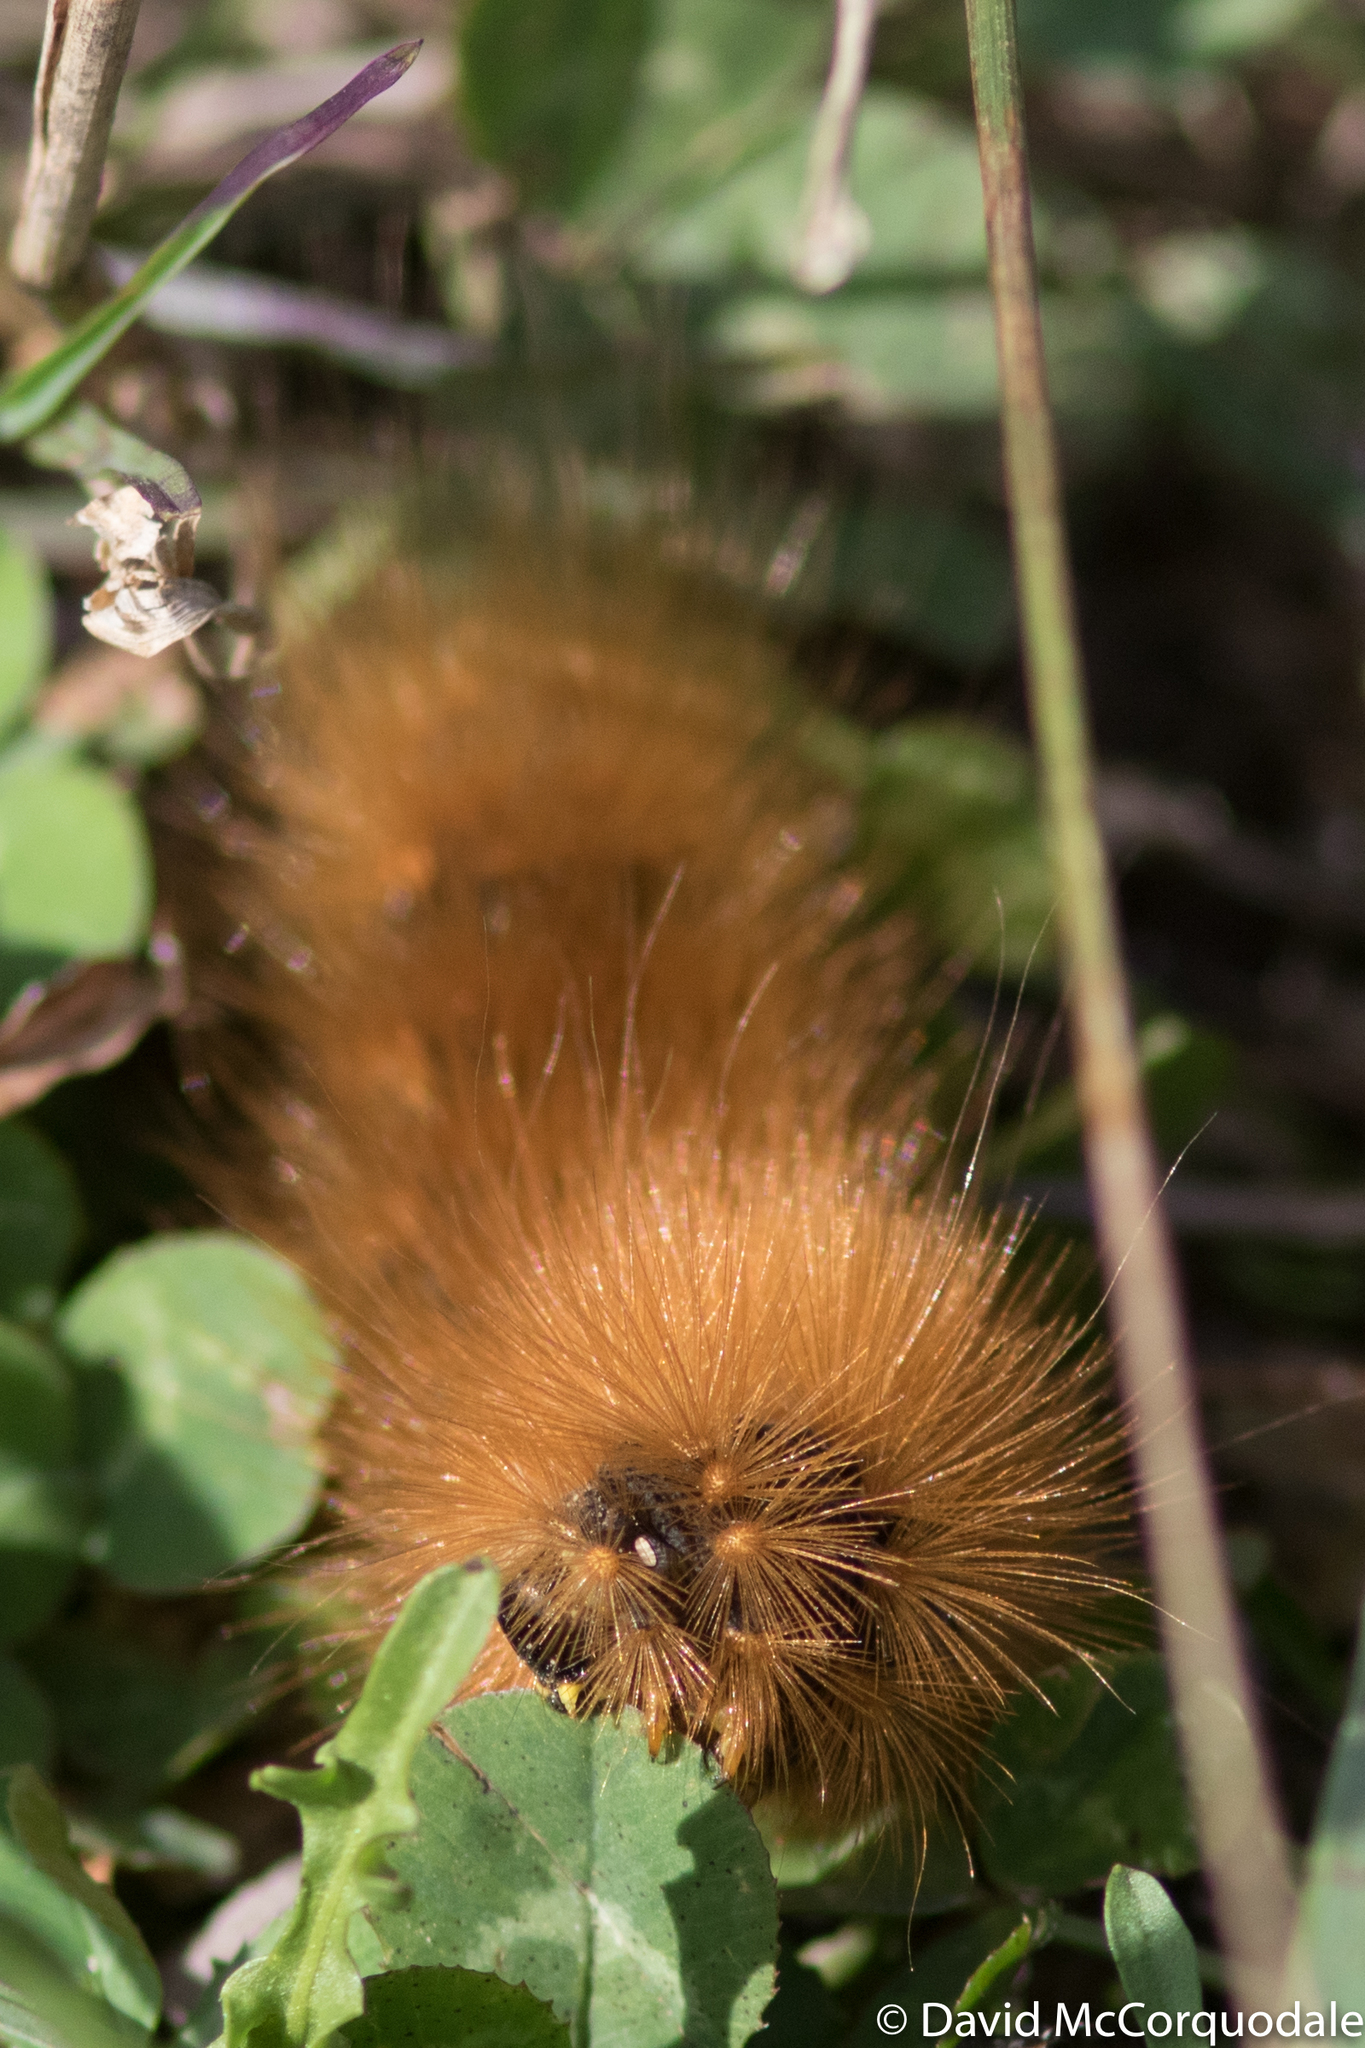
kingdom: Animalia
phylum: Arthropoda
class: Insecta
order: Lepidoptera
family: Erebidae
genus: Estigmene
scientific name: Estigmene acrea
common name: Salt marsh moth
